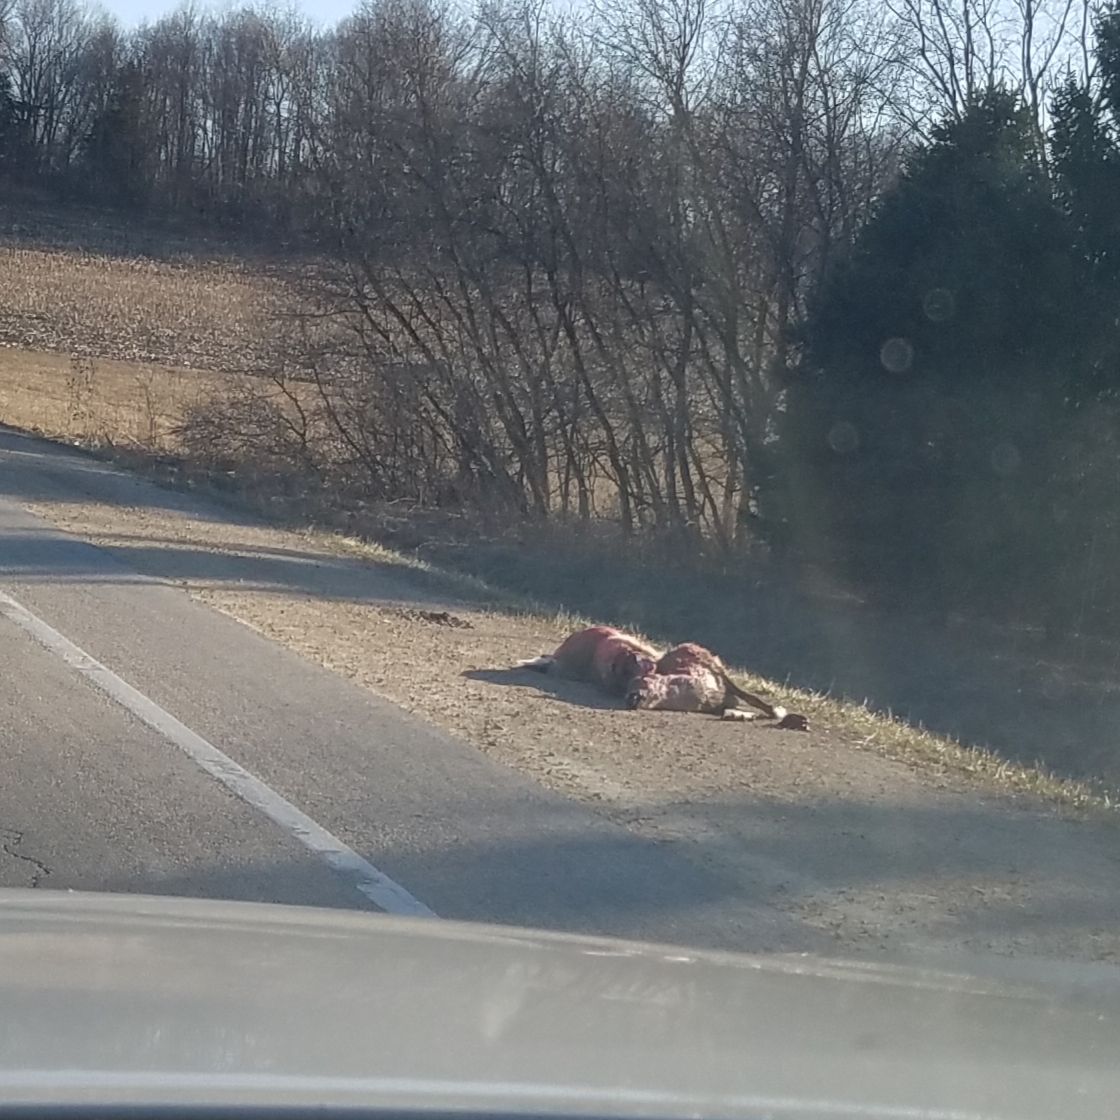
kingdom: Animalia
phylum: Chordata
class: Mammalia
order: Artiodactyla
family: Cervidae
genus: Odocoileus
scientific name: Odocoileus virginianus
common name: White-tailed deer
